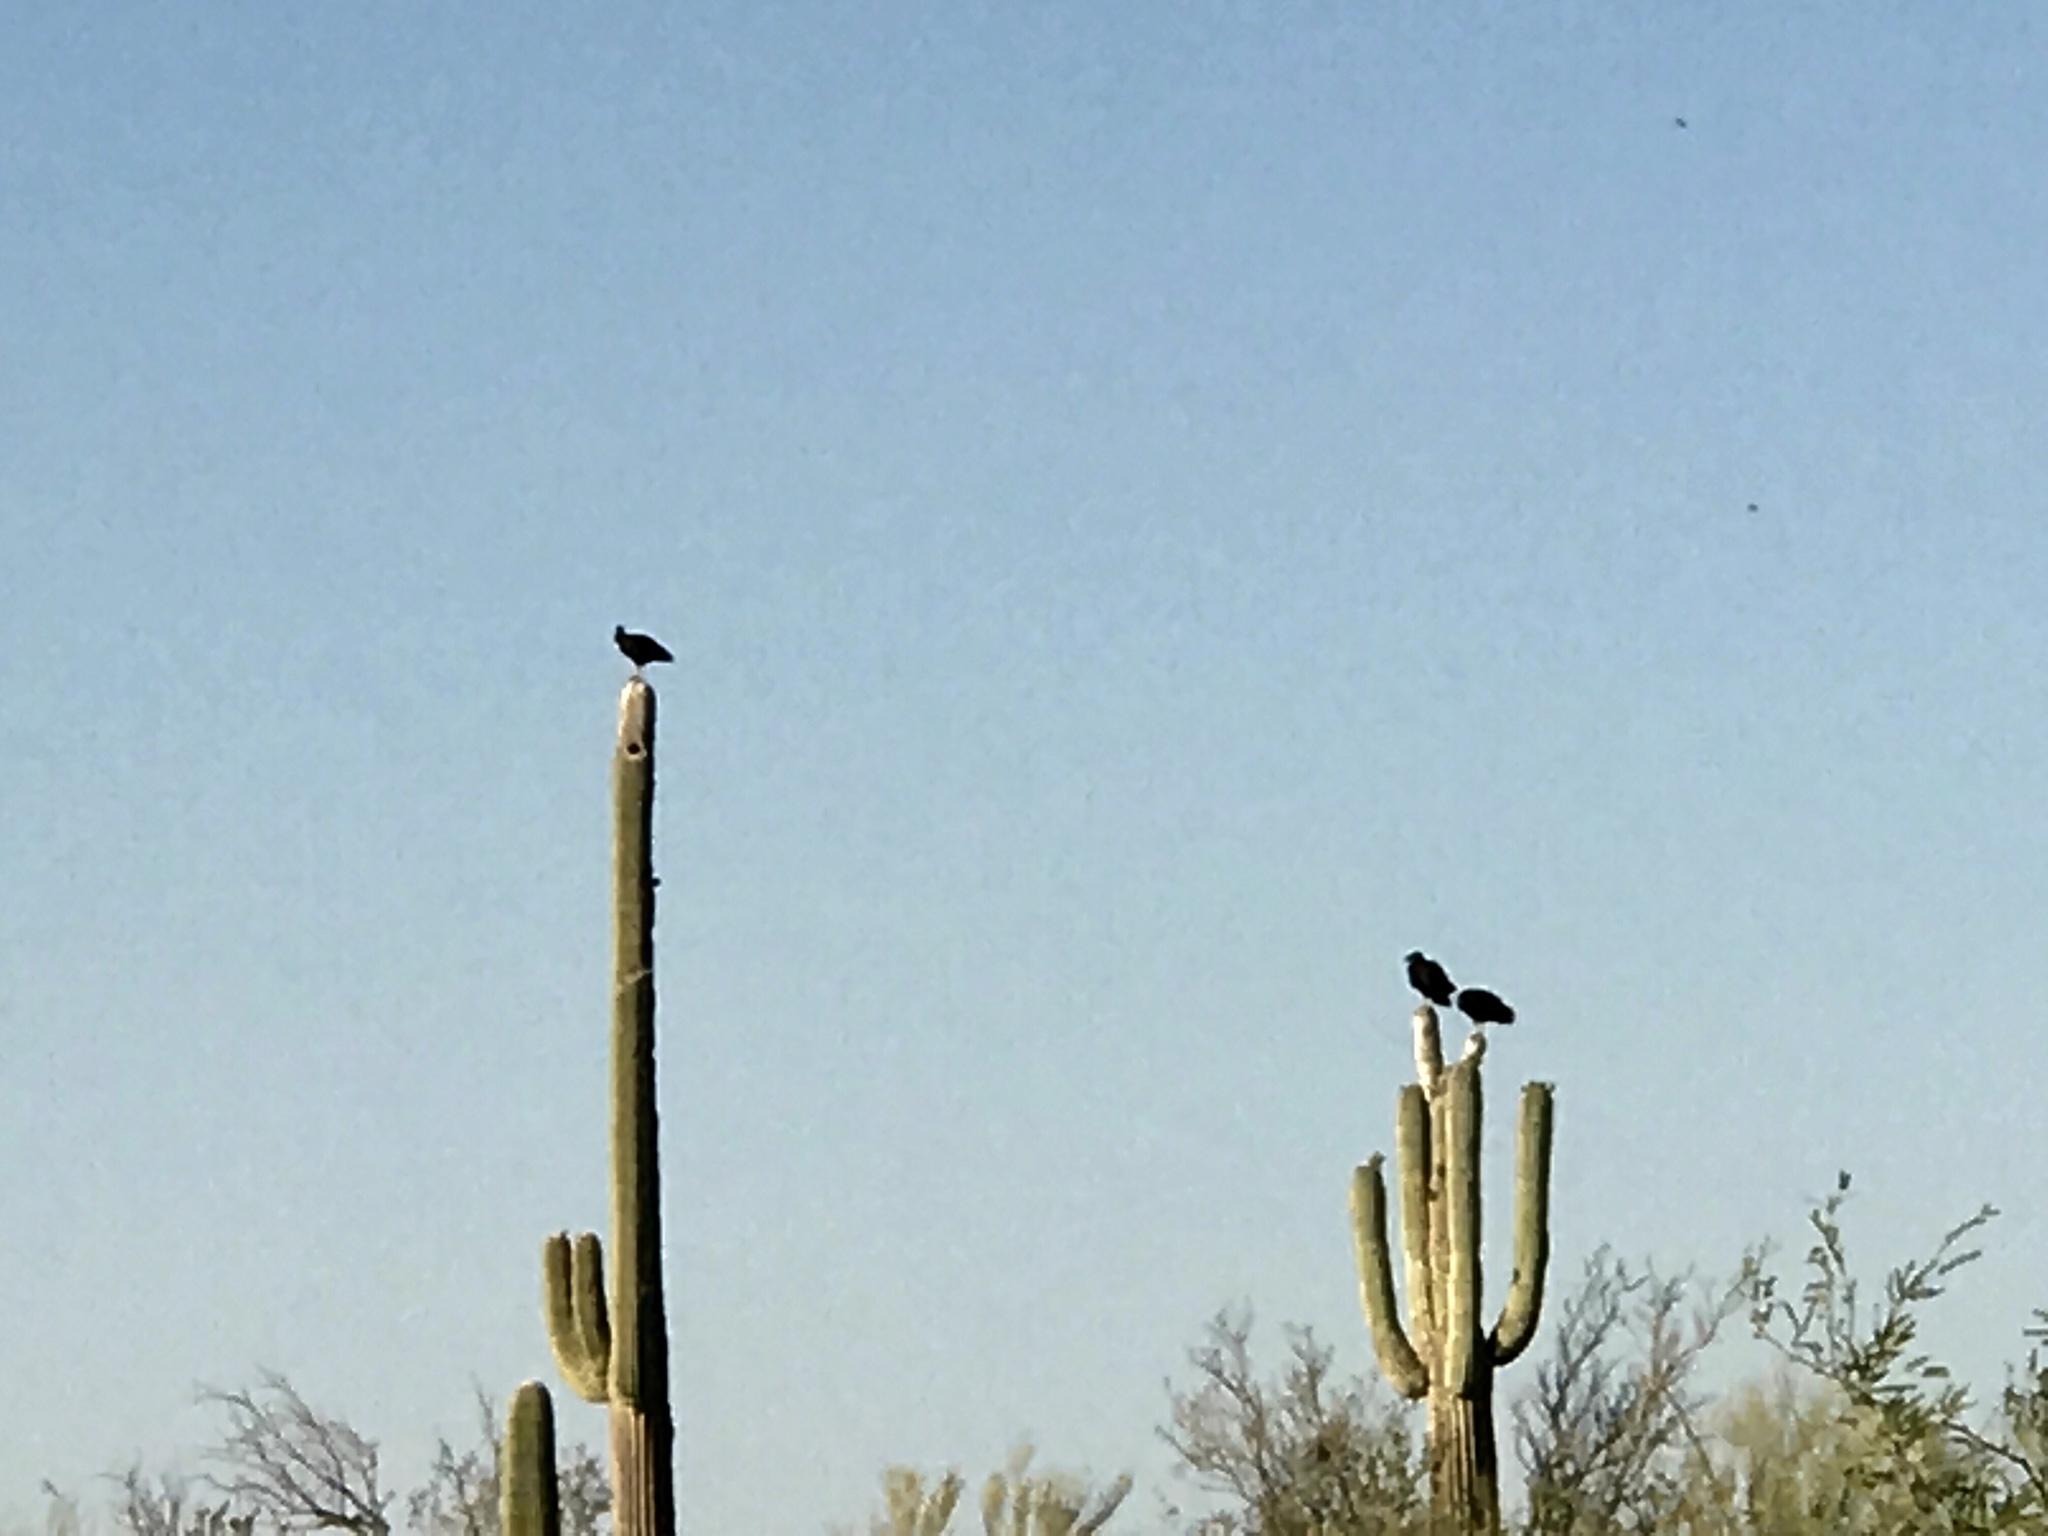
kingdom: Plantae
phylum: Tracheophyta
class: Magnoliopsida
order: Caryophyllales
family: Cactaceae
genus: Carnegiea
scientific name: Carnegiea gigantea
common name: Saguaro
